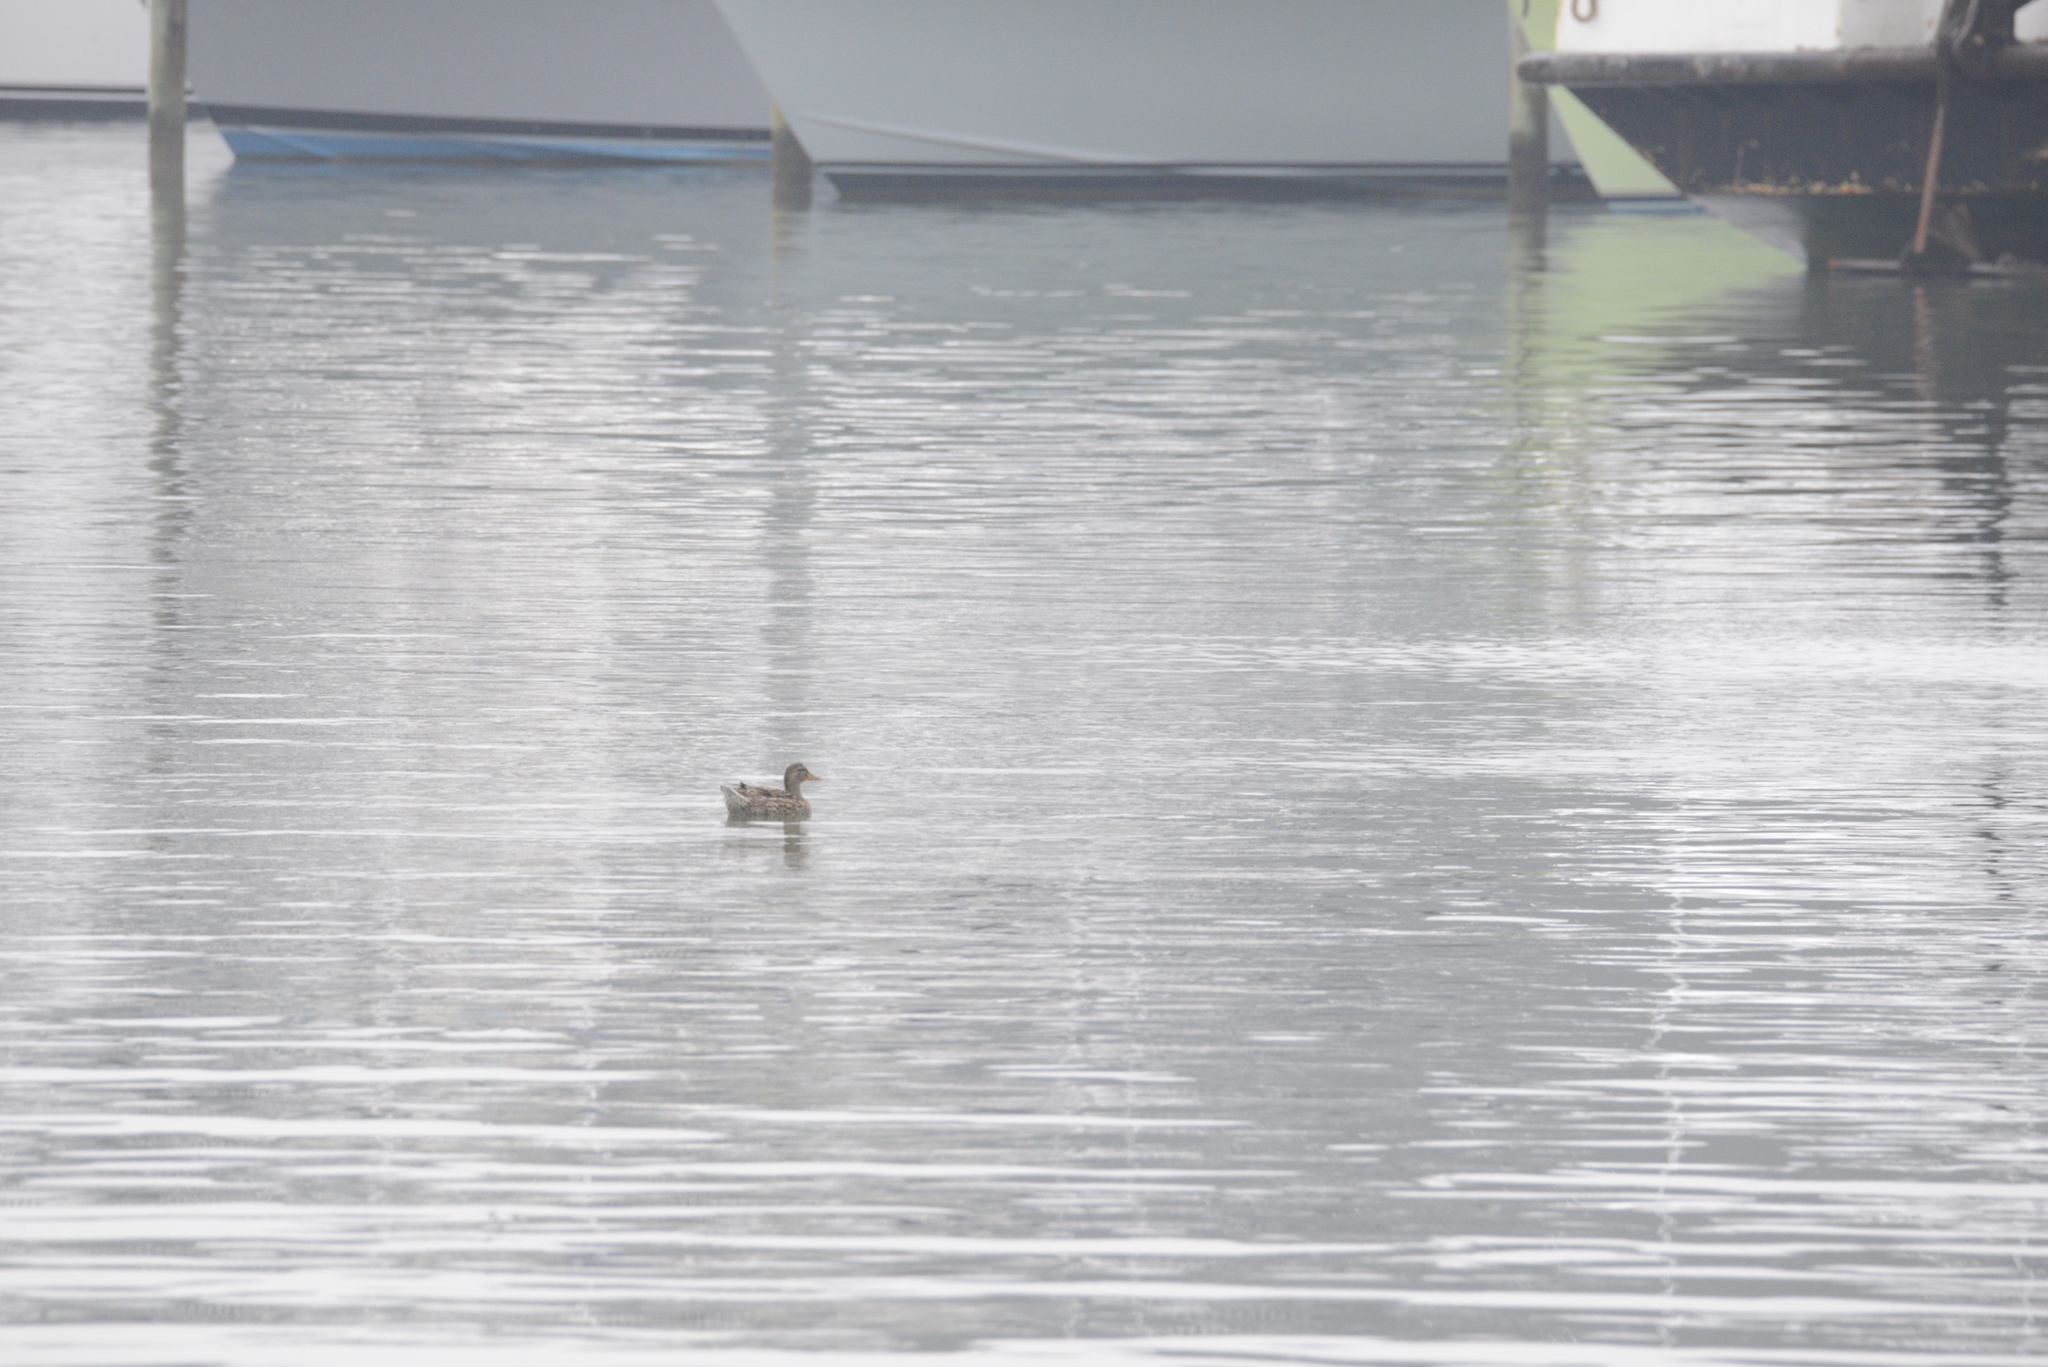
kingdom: Animalia
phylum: Chordata
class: Aves
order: Anseriformes
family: Anatidae
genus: Anas
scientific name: Anas platyrhynchos
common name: Mallard
